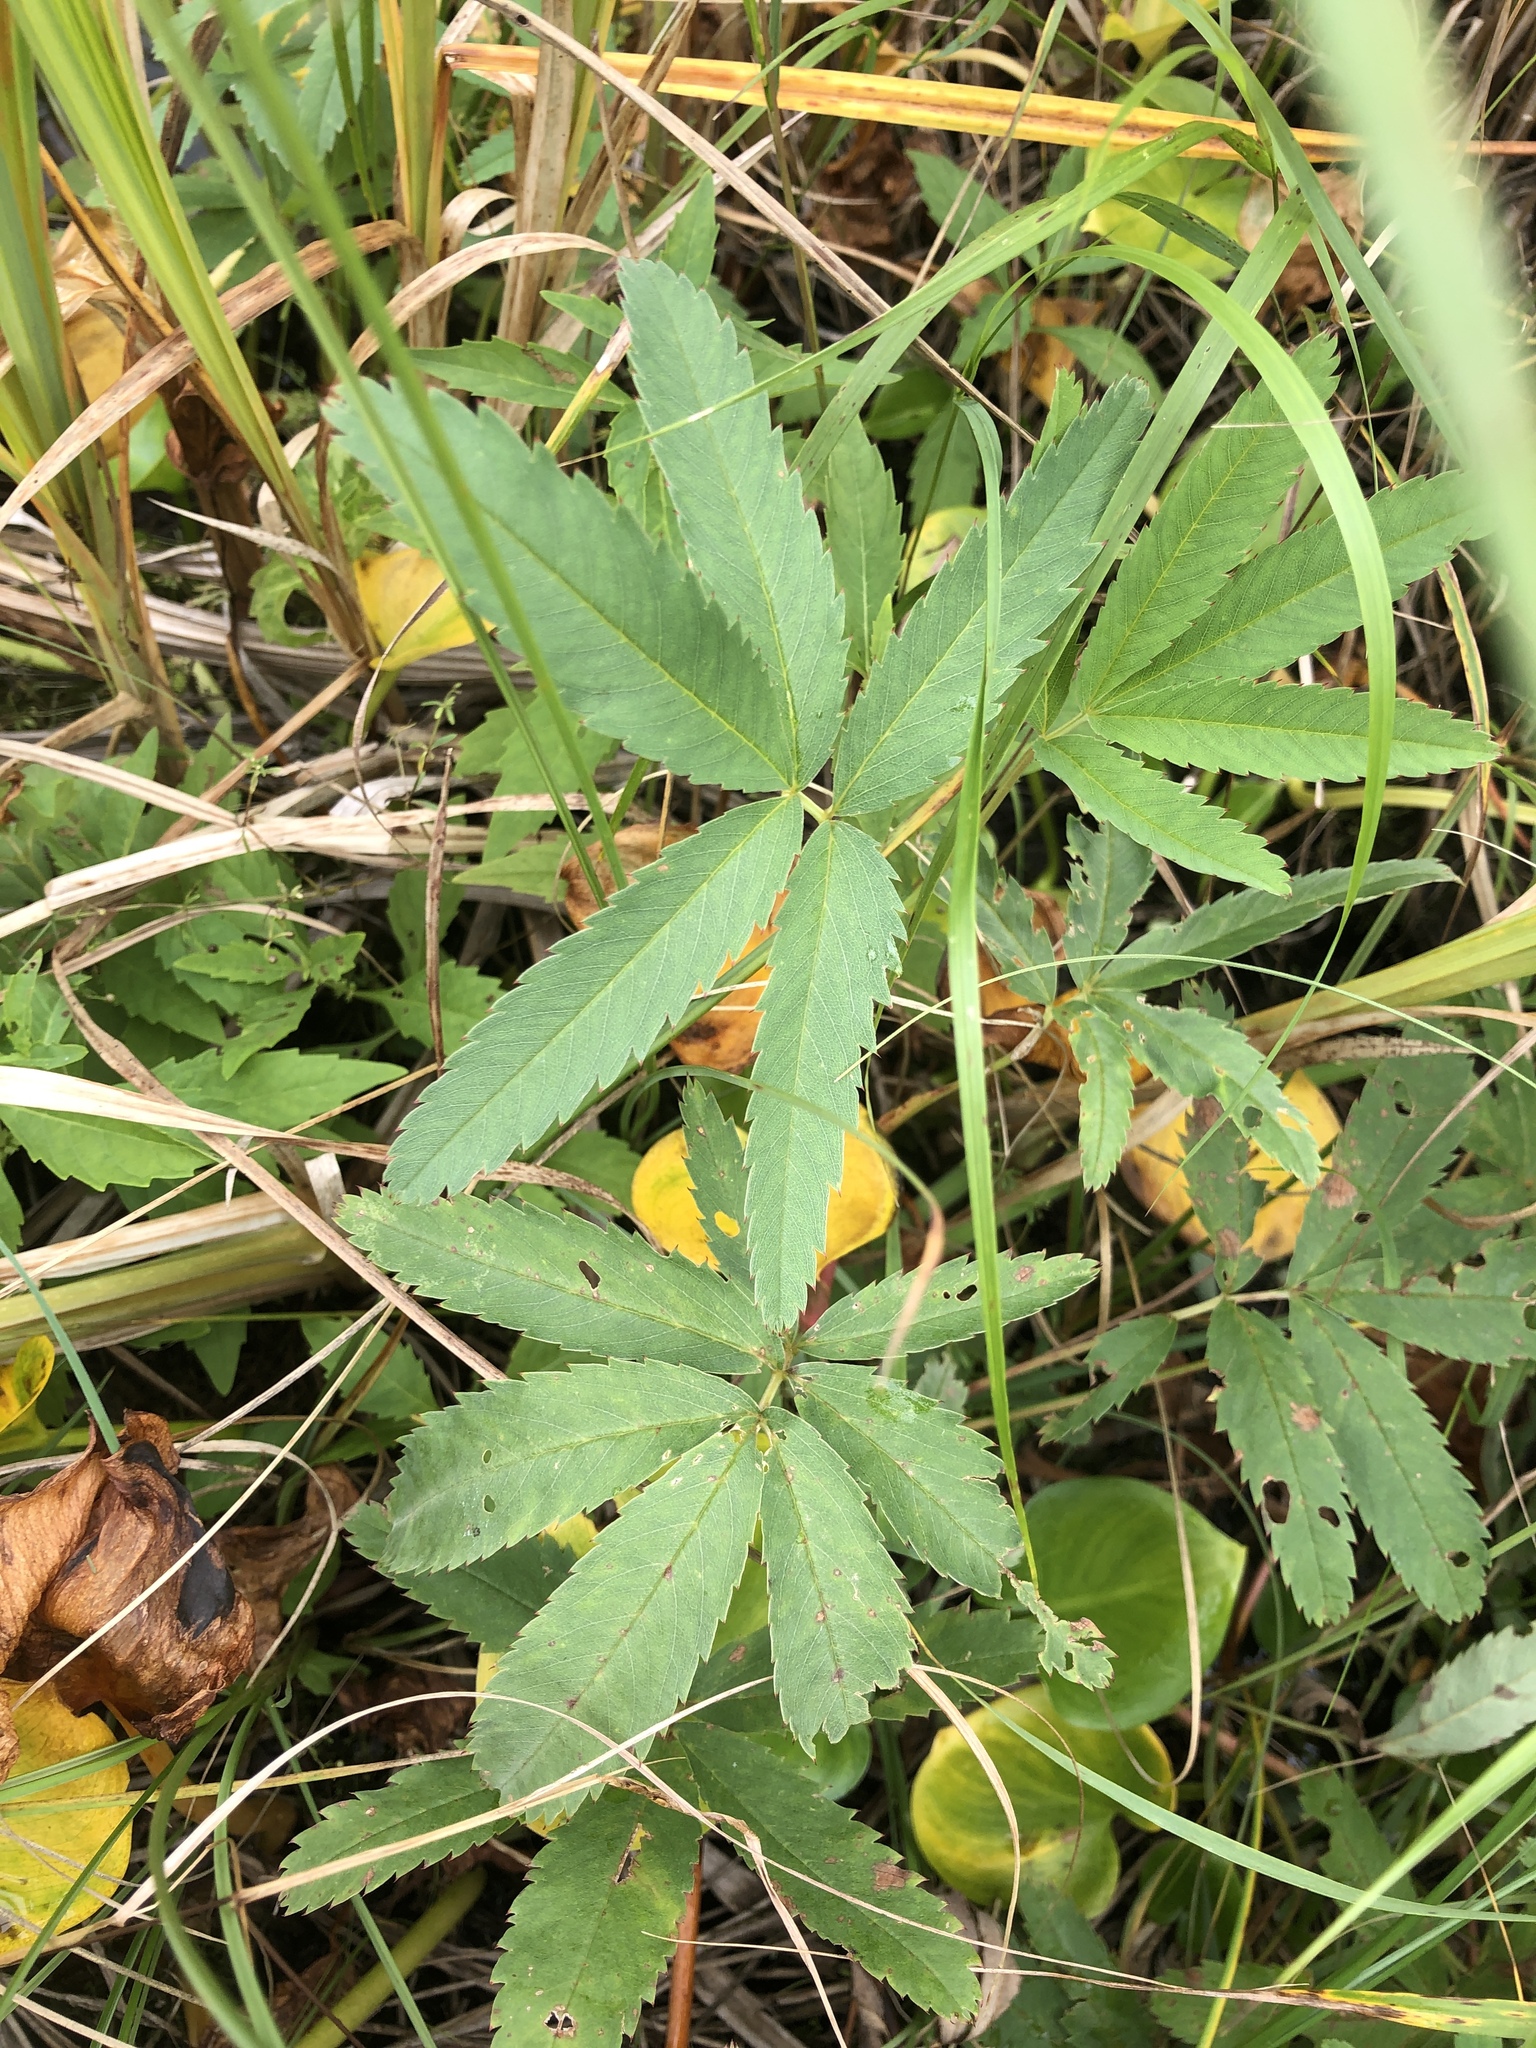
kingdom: Plantae
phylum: Tracheophyta
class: Magnoliopsida
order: Rosales
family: Rosaceae
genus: Comarum
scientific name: Comarum palustre
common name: Marsh cinquefoil
